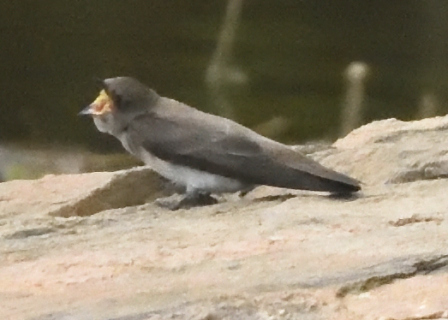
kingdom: Animalia
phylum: Chordata
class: Aves
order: Passeriformes
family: Hirundinidae
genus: Stelgidopteryx
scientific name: Stelgidopteryx serripennis
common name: Northern rough-winged swallow
